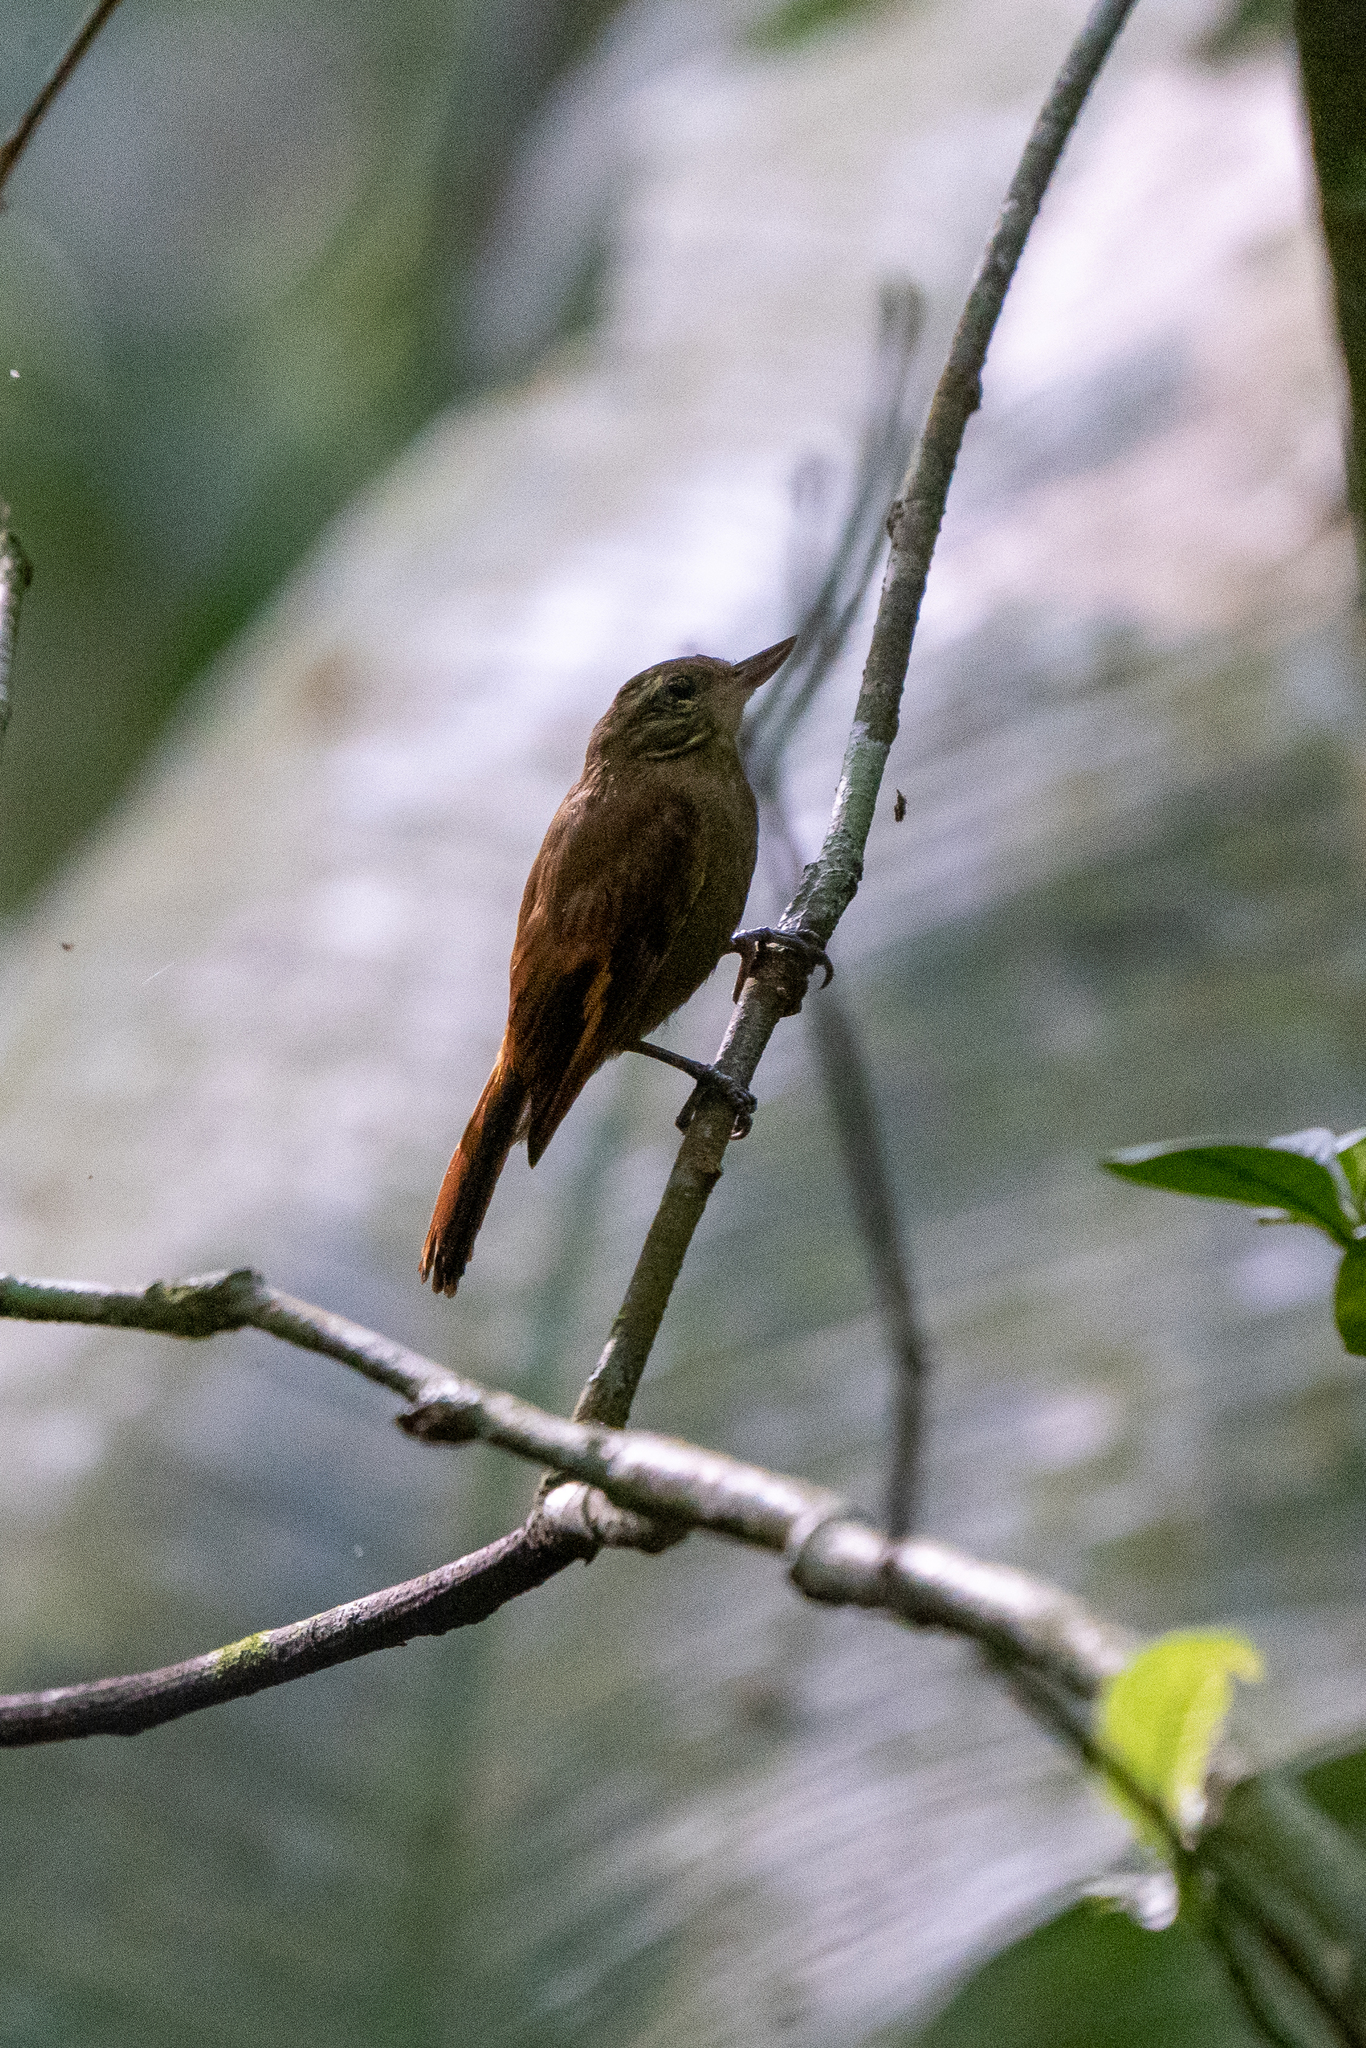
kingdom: Animalia
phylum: Chordata
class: Aves
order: Passeriformes
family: Furnariidae
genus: Xenops
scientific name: Xenops minutus
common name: Plain xenops
